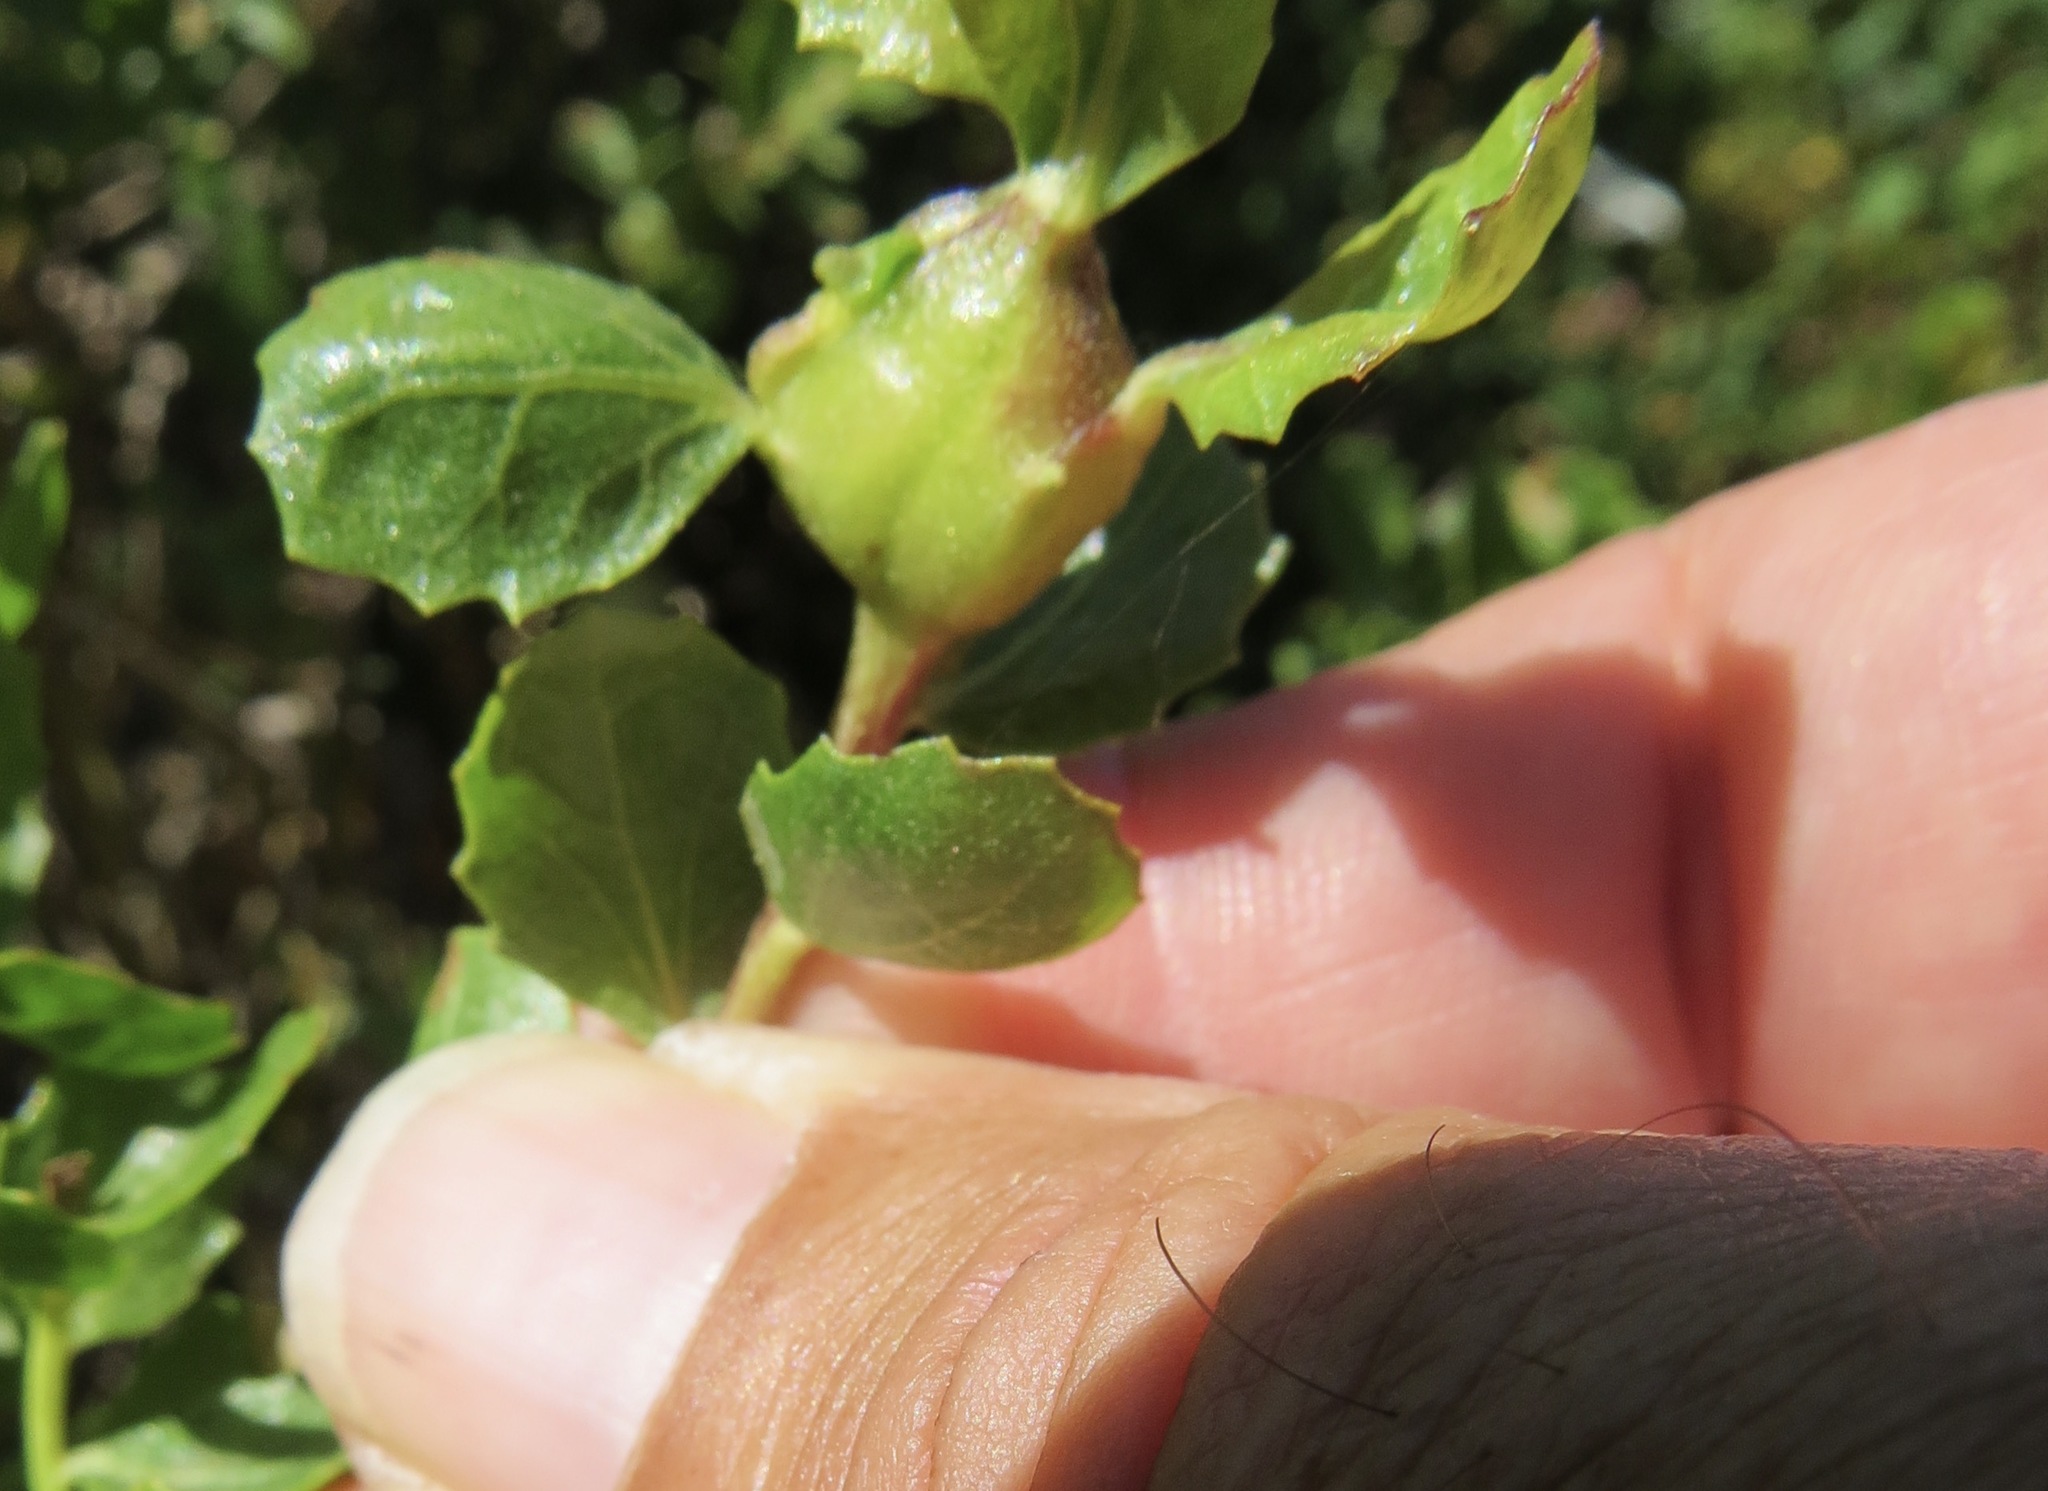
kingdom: Animalia
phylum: Arthropoda
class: Insecta
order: Lepidoptera
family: Gelechiidae
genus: Gnorimoschema
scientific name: Gnorimoschema baccharisella
